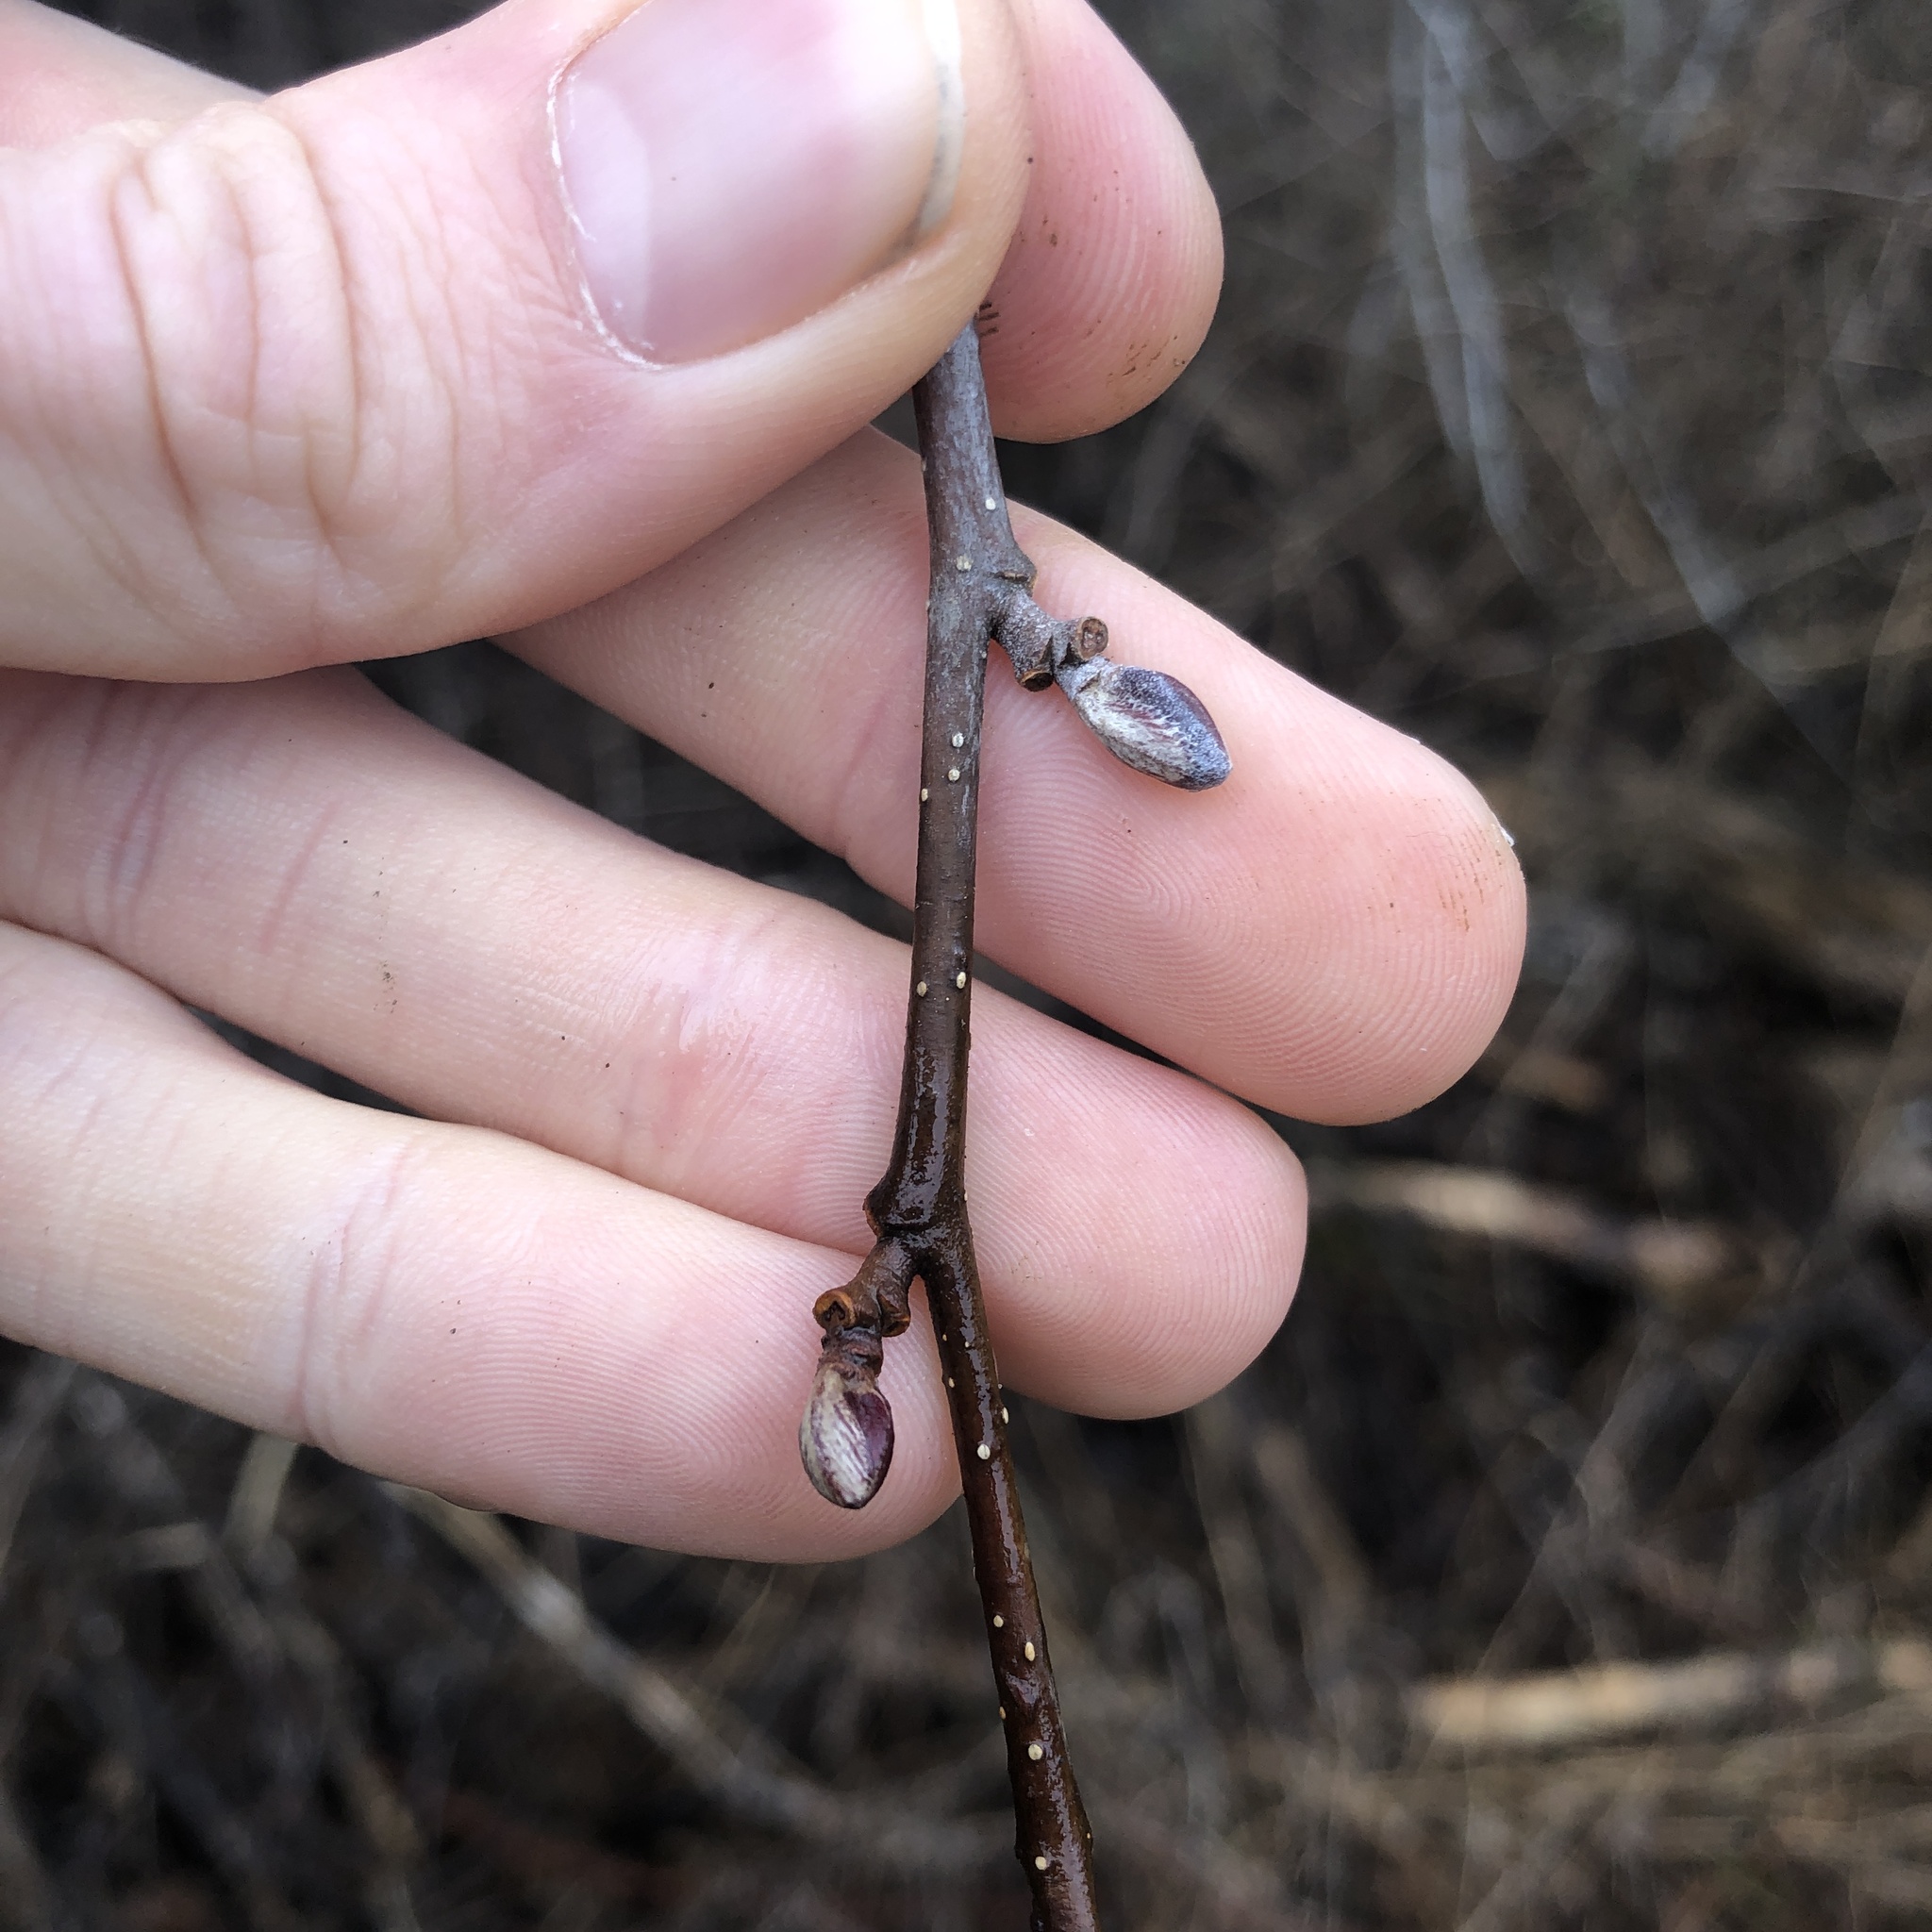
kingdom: Plantae
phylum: Tracheophyta
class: Magnoliopsida
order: Fagales
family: Betulaceae
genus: Alnus
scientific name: Alnus glutinosa
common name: Black alder
